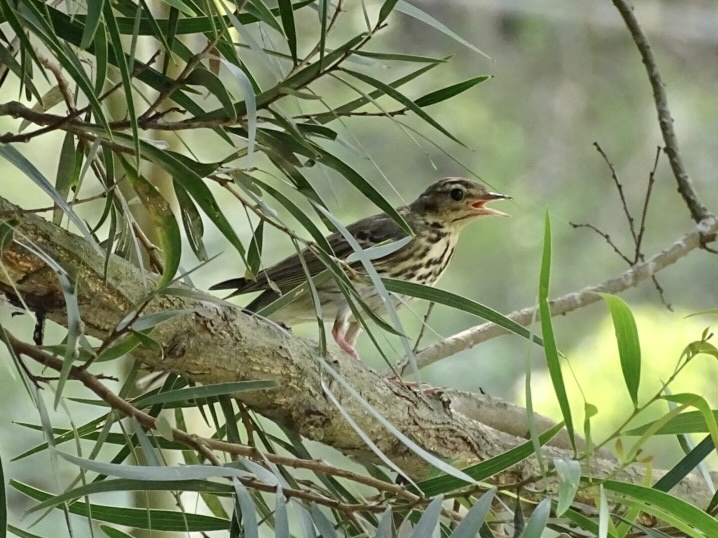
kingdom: Animalia
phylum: Chordata
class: Aves
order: Passeriformes
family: Motacillidae
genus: Anthus
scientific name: Anthus hodgsoni
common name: Olive-backed pipit
